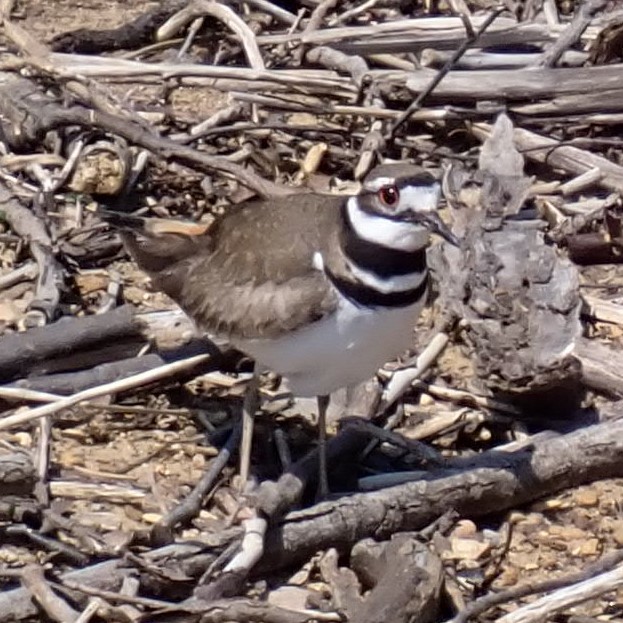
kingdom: Animalia
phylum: Chordata
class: Aves
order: Charadriiformes
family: Charadriidae
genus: Charadrius
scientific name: Charadrius vociferus
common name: Killdeer
